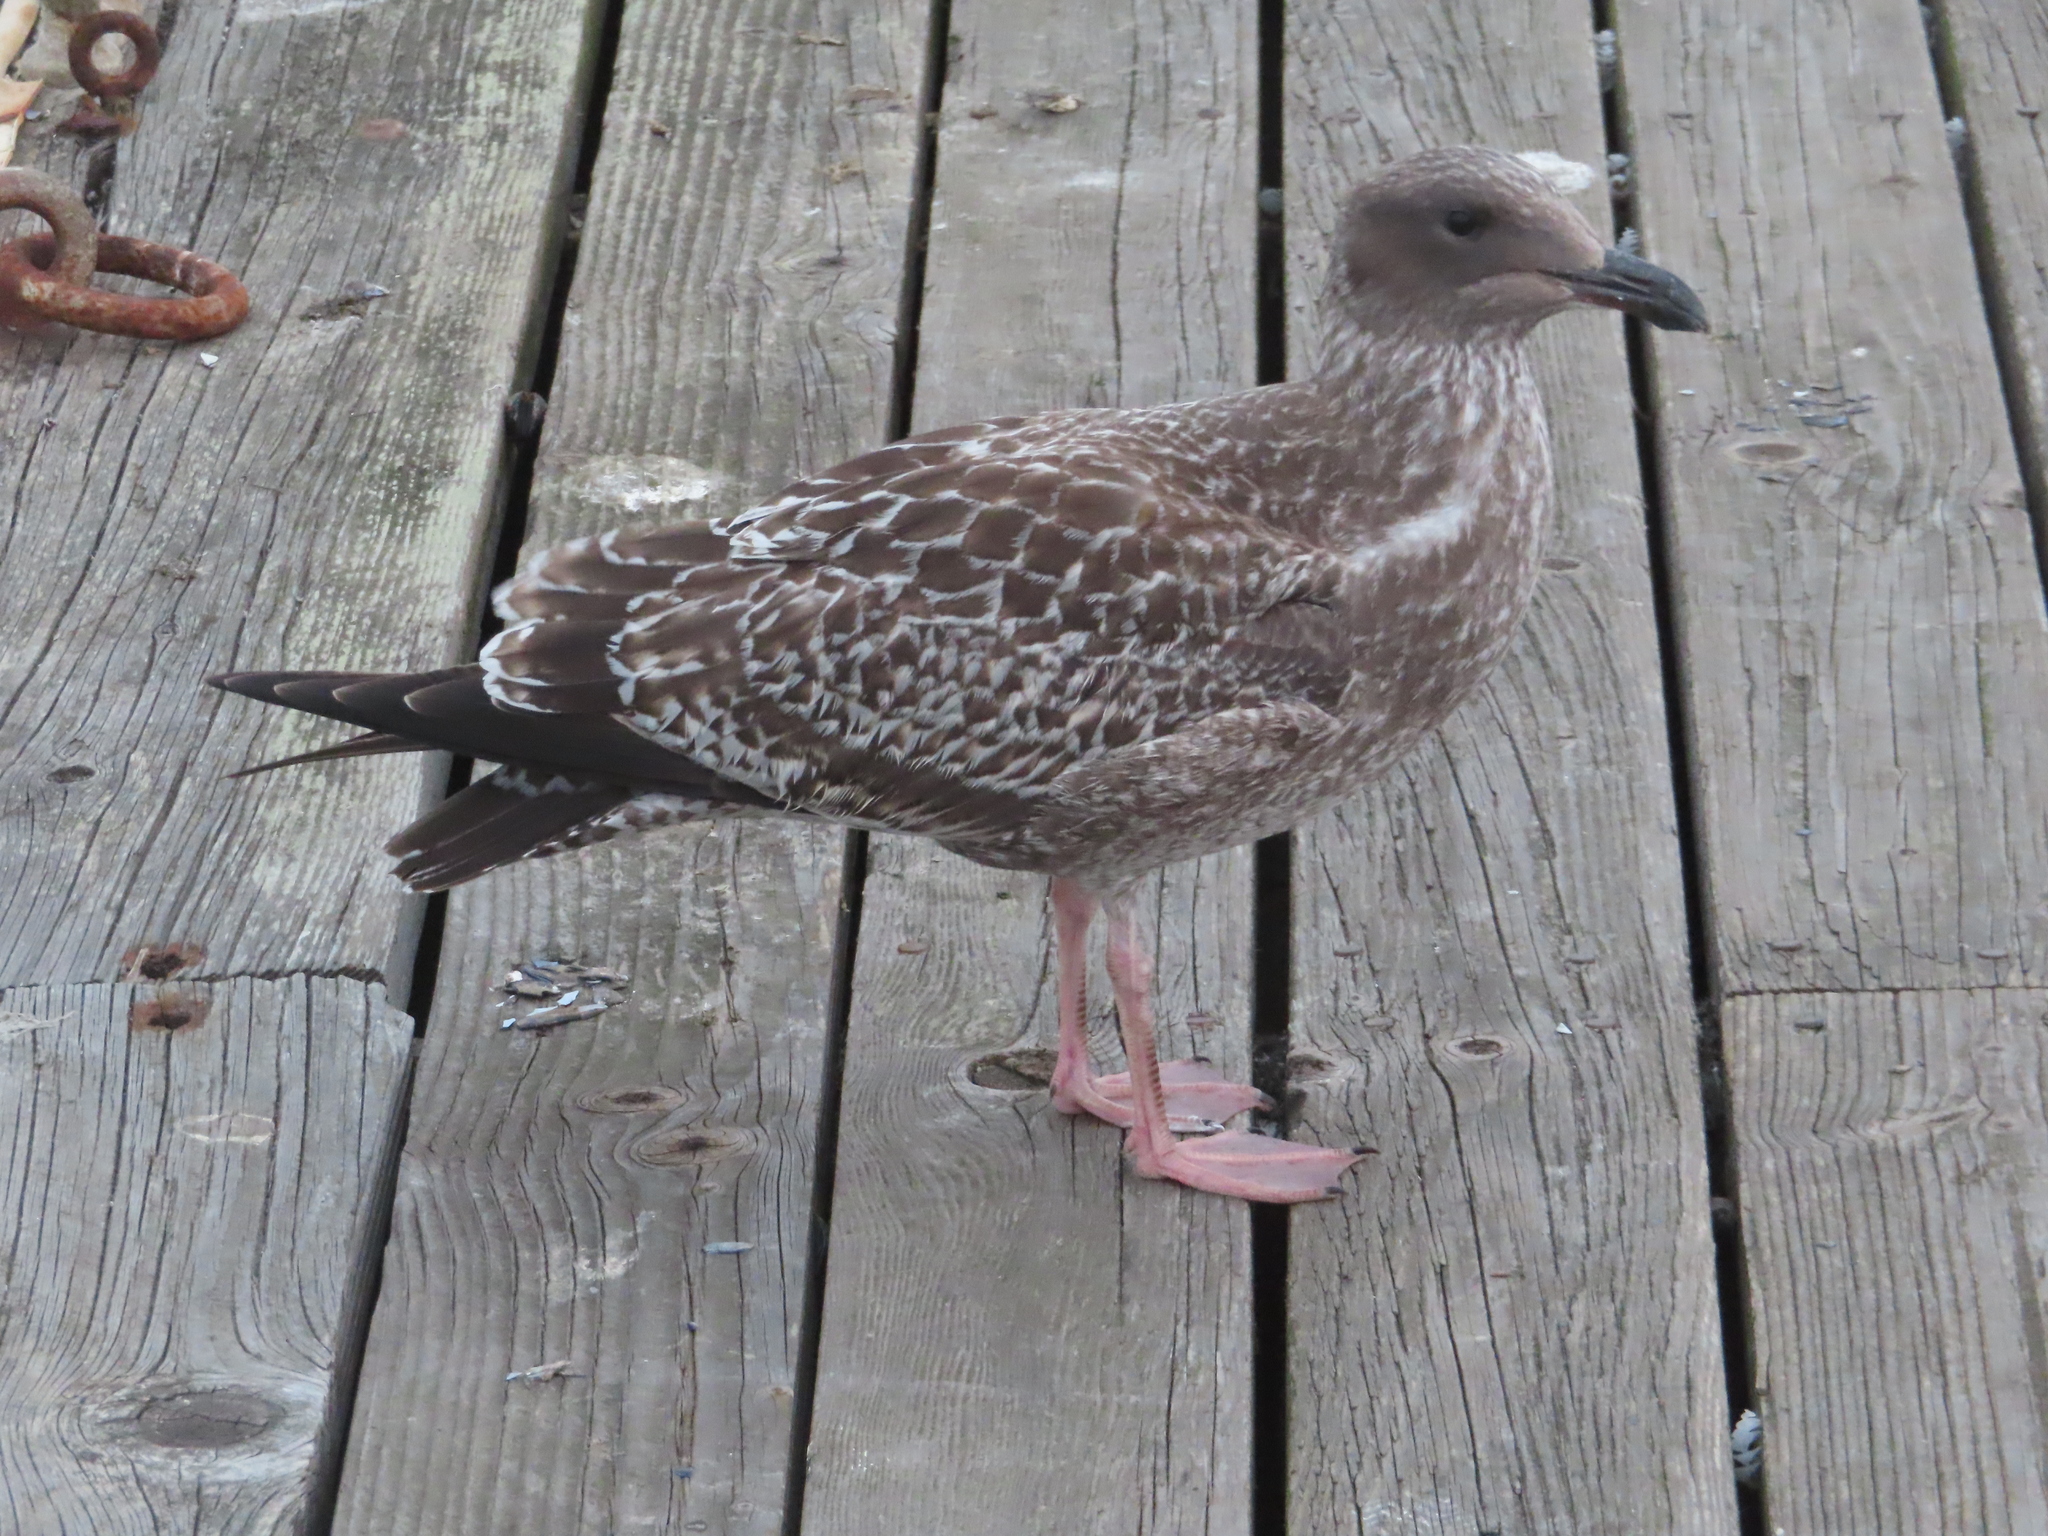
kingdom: Animalia
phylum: Chordata
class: Aves
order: Charadriiformes
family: Laridae
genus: Larus
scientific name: Larus occidentalis
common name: Western gull
